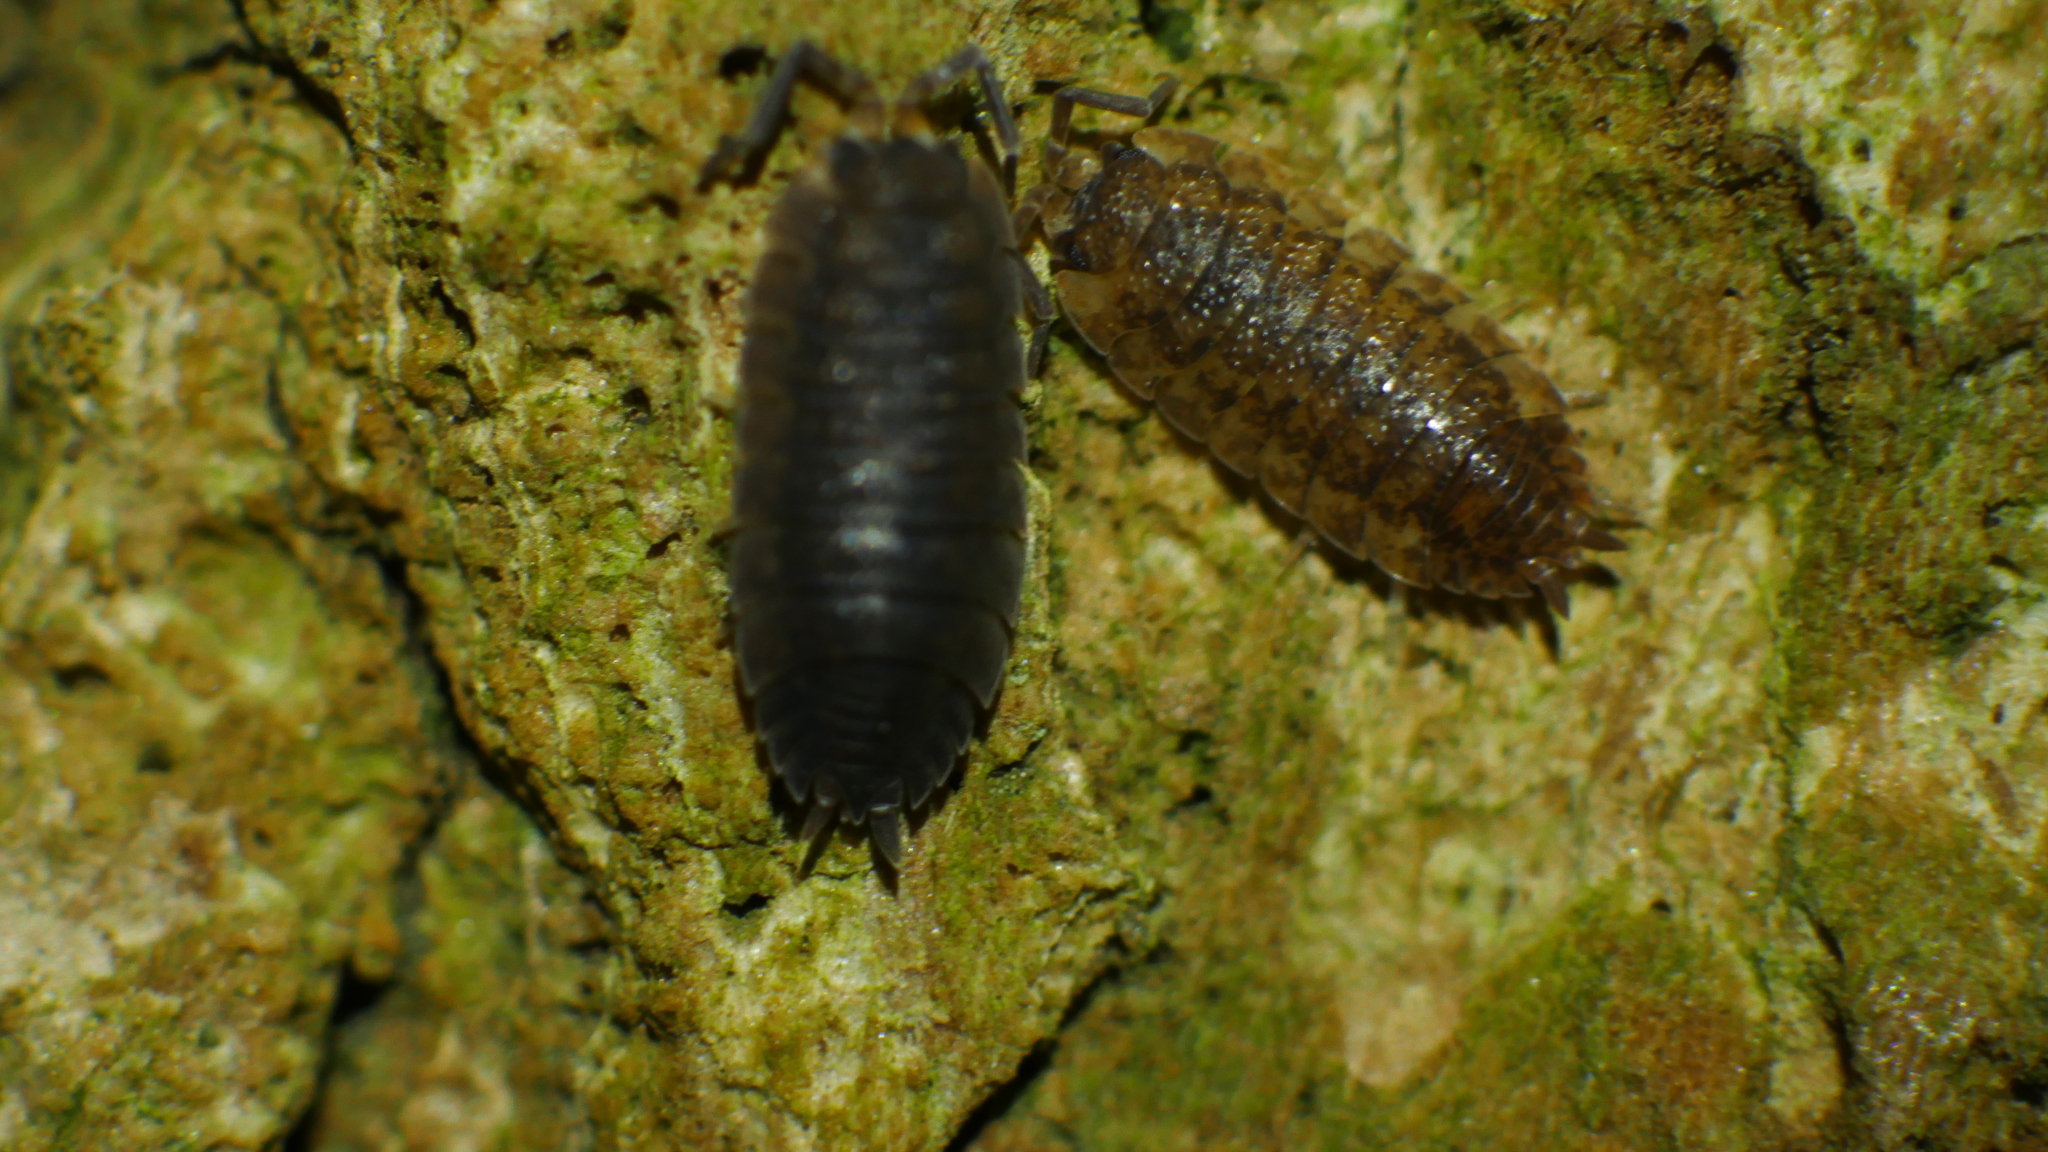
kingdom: Animalia
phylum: Arthropoda
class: Malacostraca
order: Isopoda
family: Porcellionidae
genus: Porcellio
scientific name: Porcellio scaber
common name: Common rough woodlouse
